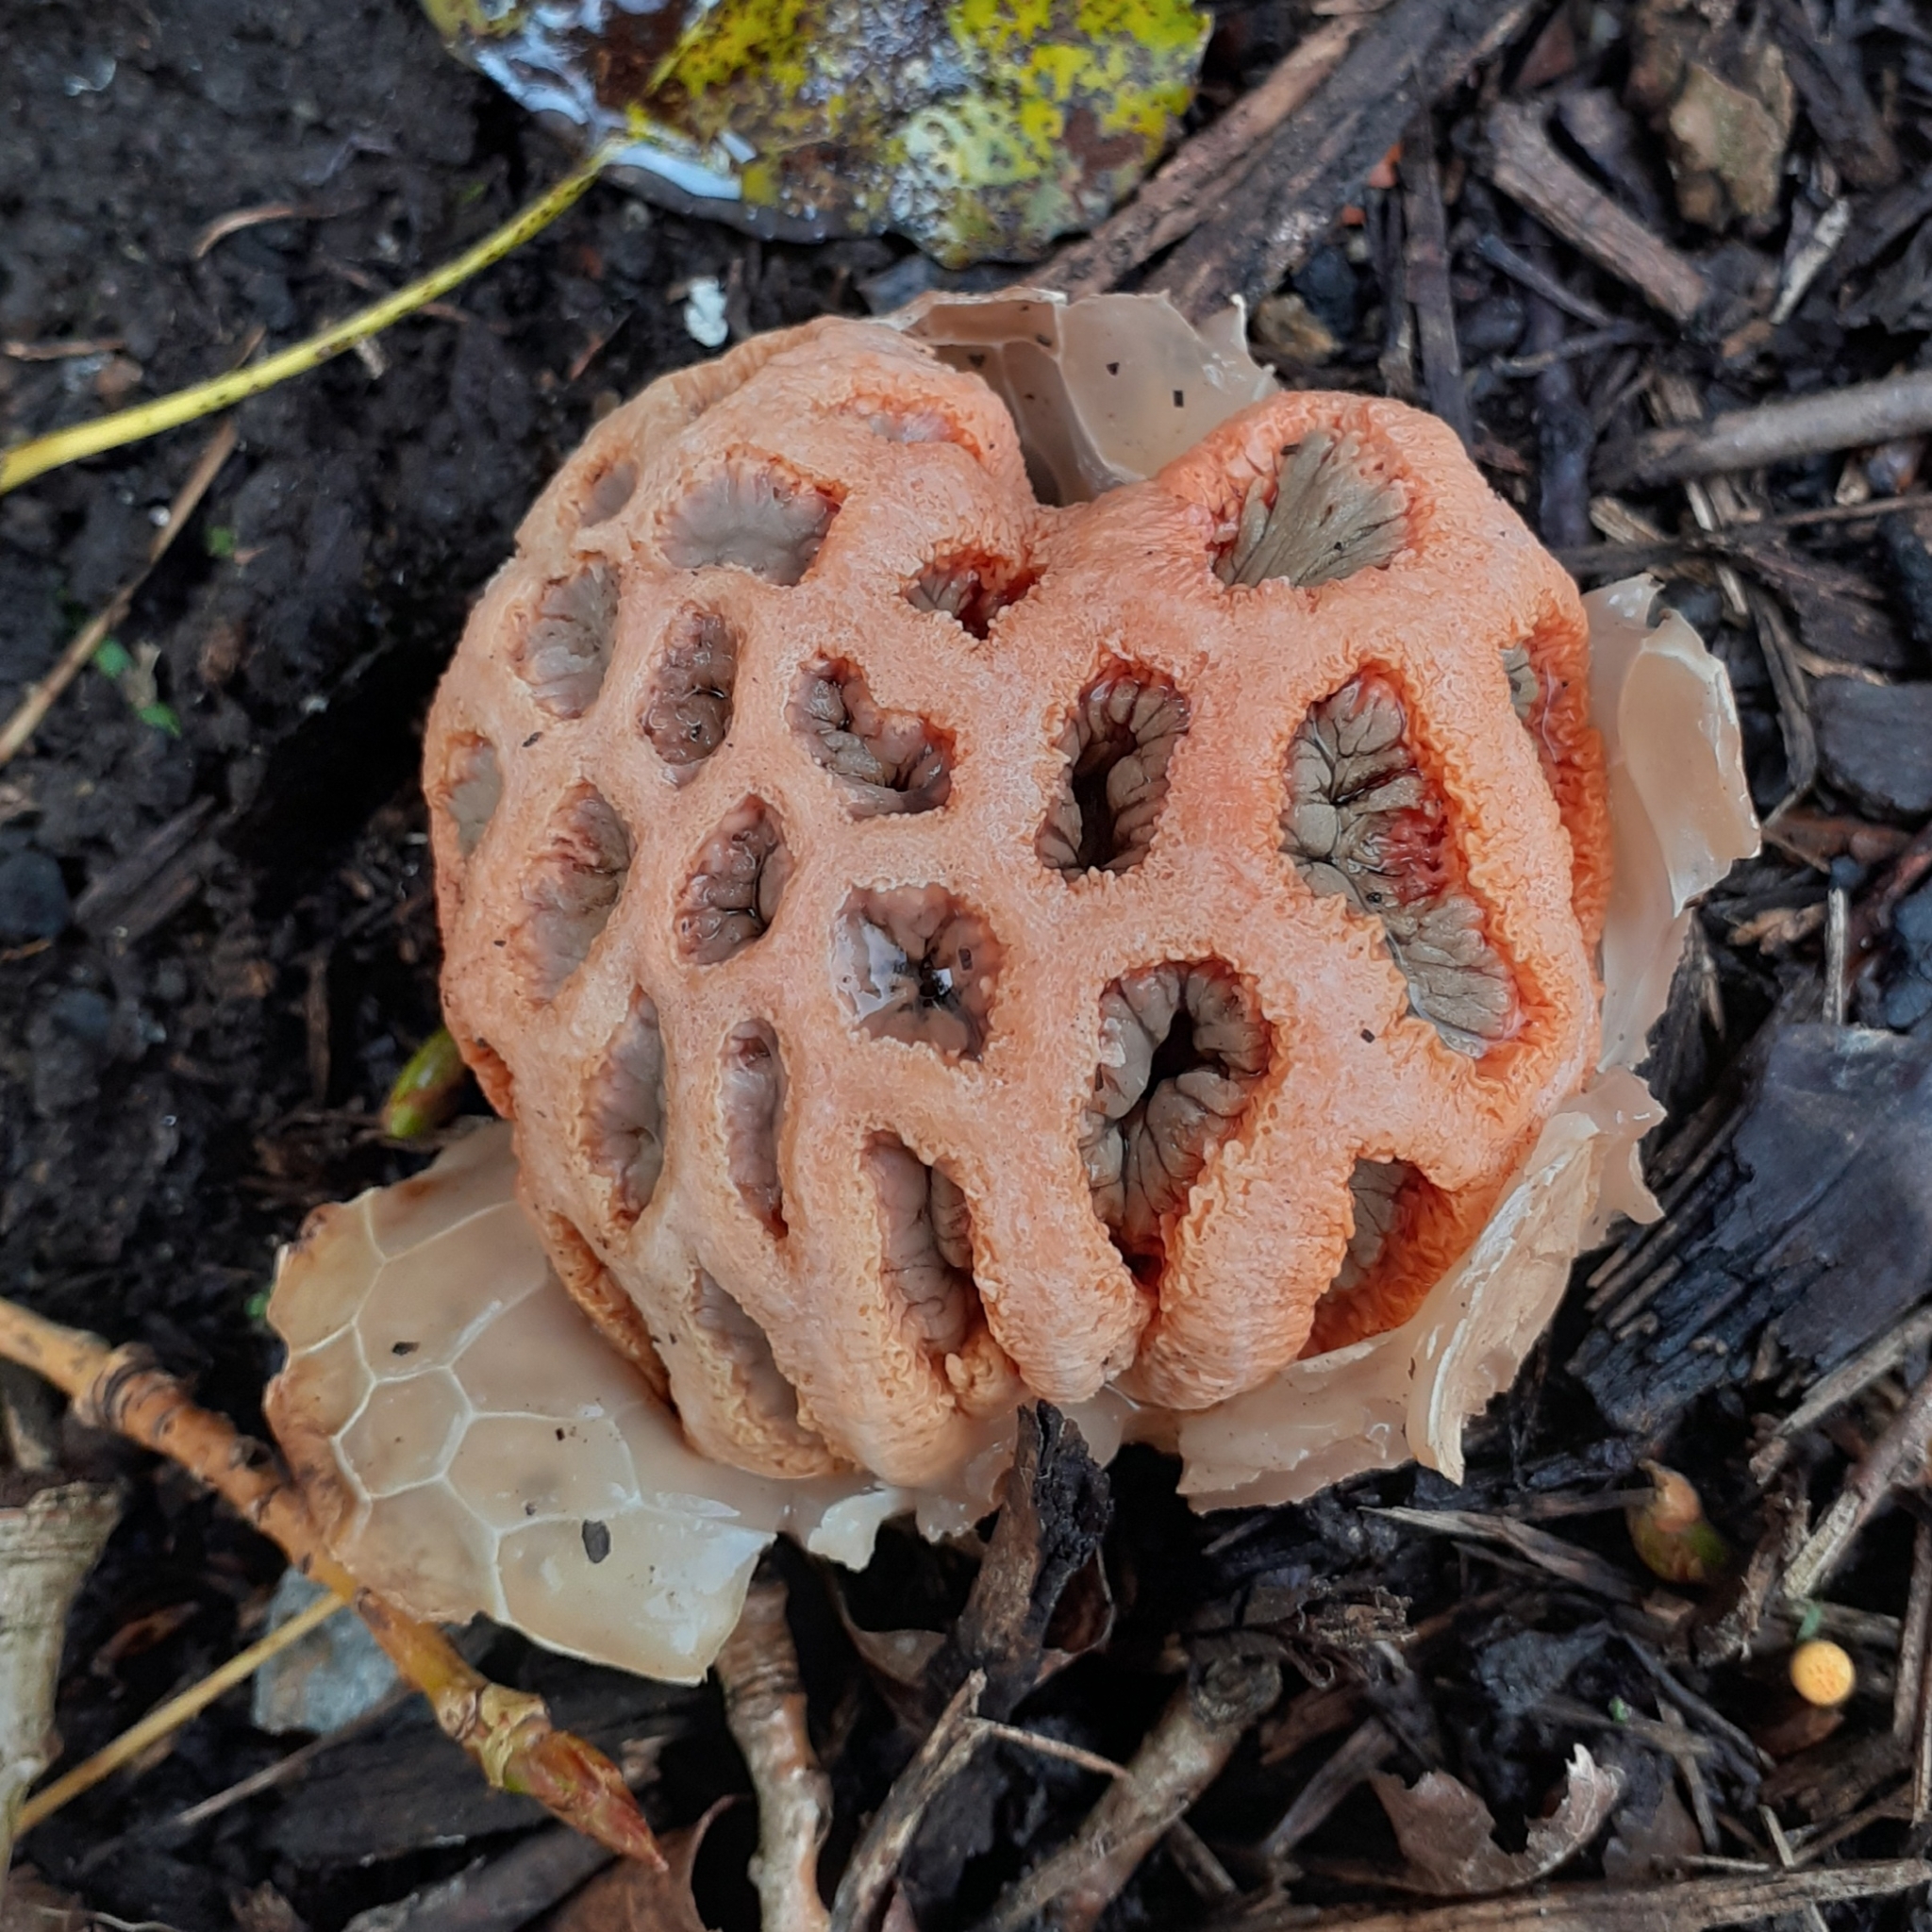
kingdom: Fungi
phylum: Basidiomycota
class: Agaricomycetes
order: Phallales
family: Phallaceae
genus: Clathrus
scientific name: Clathrus ruber
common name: Red cage
